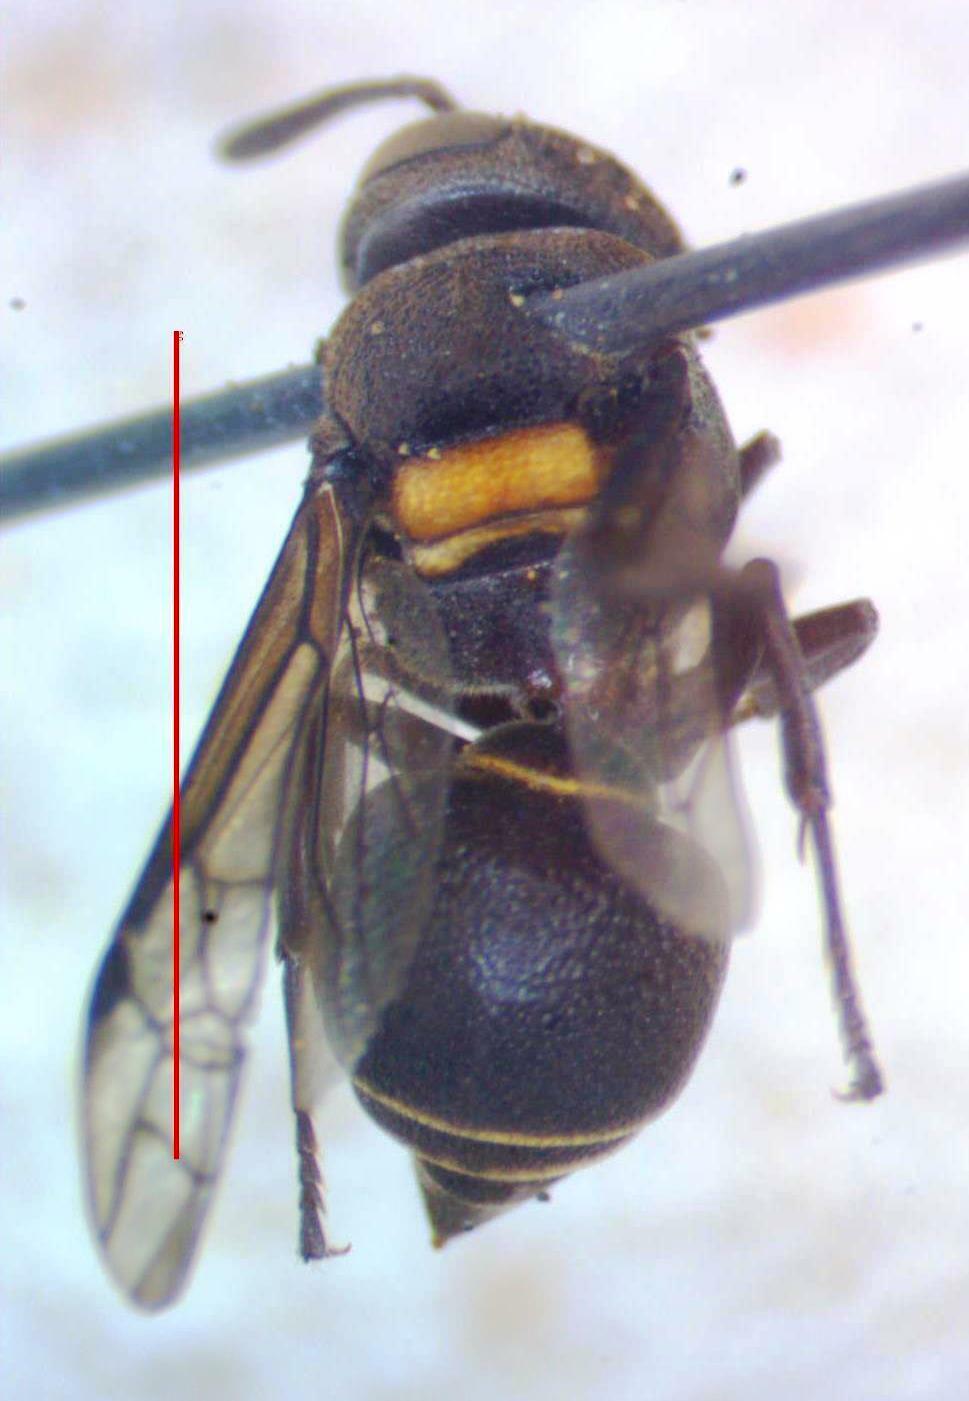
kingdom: Animalia
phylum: Arthropoda
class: Insecta
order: Hymenoptera
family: Vespidae
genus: Brachygastra
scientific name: Brachygastra scutellaris
